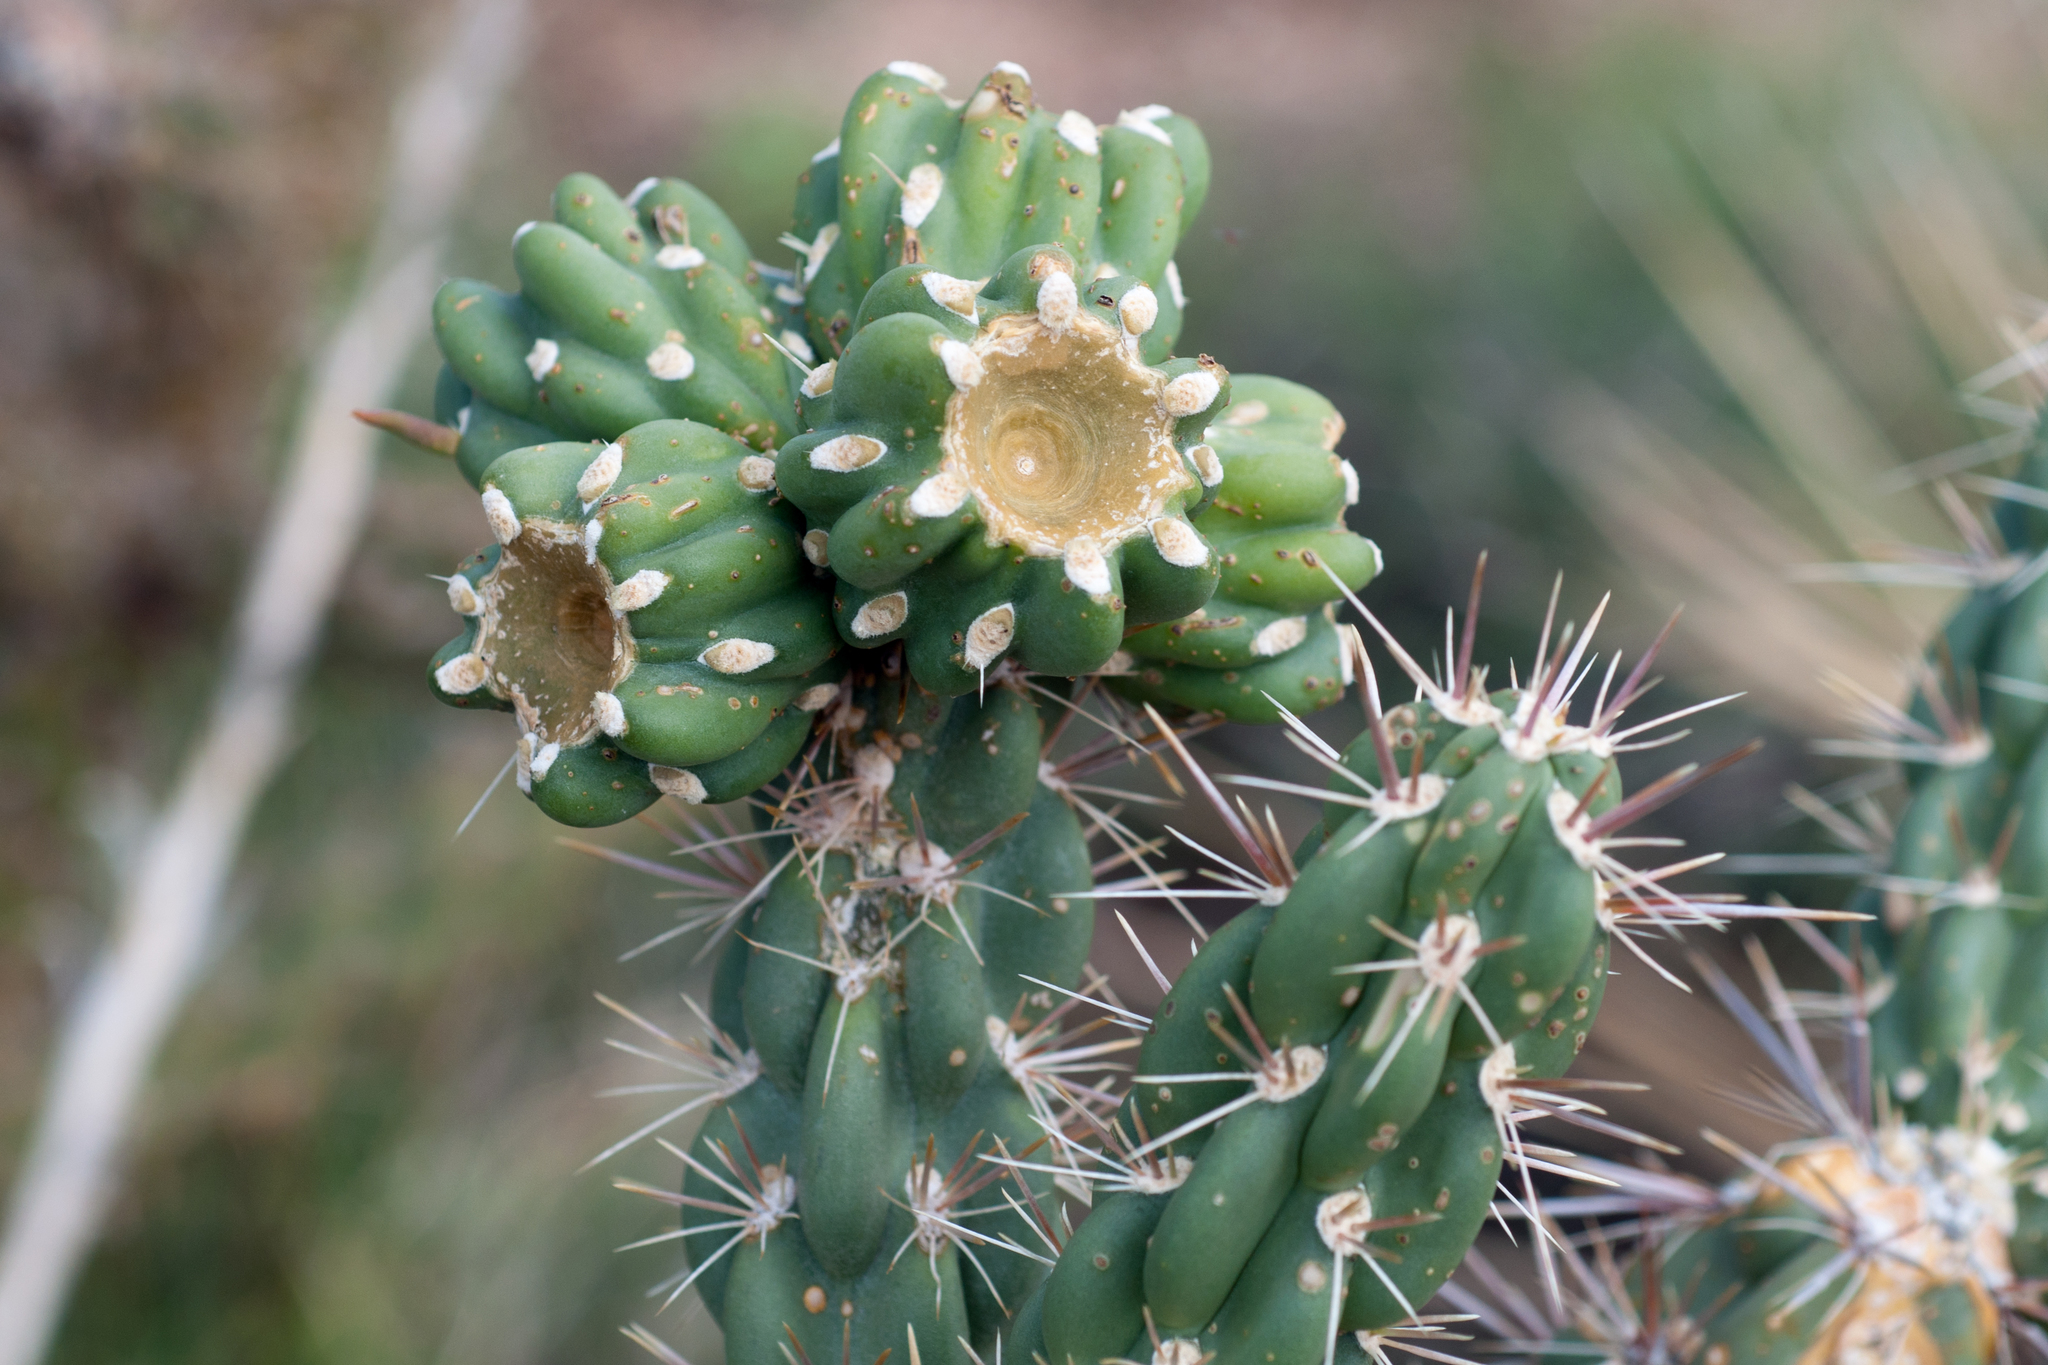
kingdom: Plantae
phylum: Tracheophyta
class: Magnoliopsida
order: Caryophyllales
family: Cactaceae
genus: Cylindropuntia
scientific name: Cylindropuntia imbricata
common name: Candelabrum cactus
